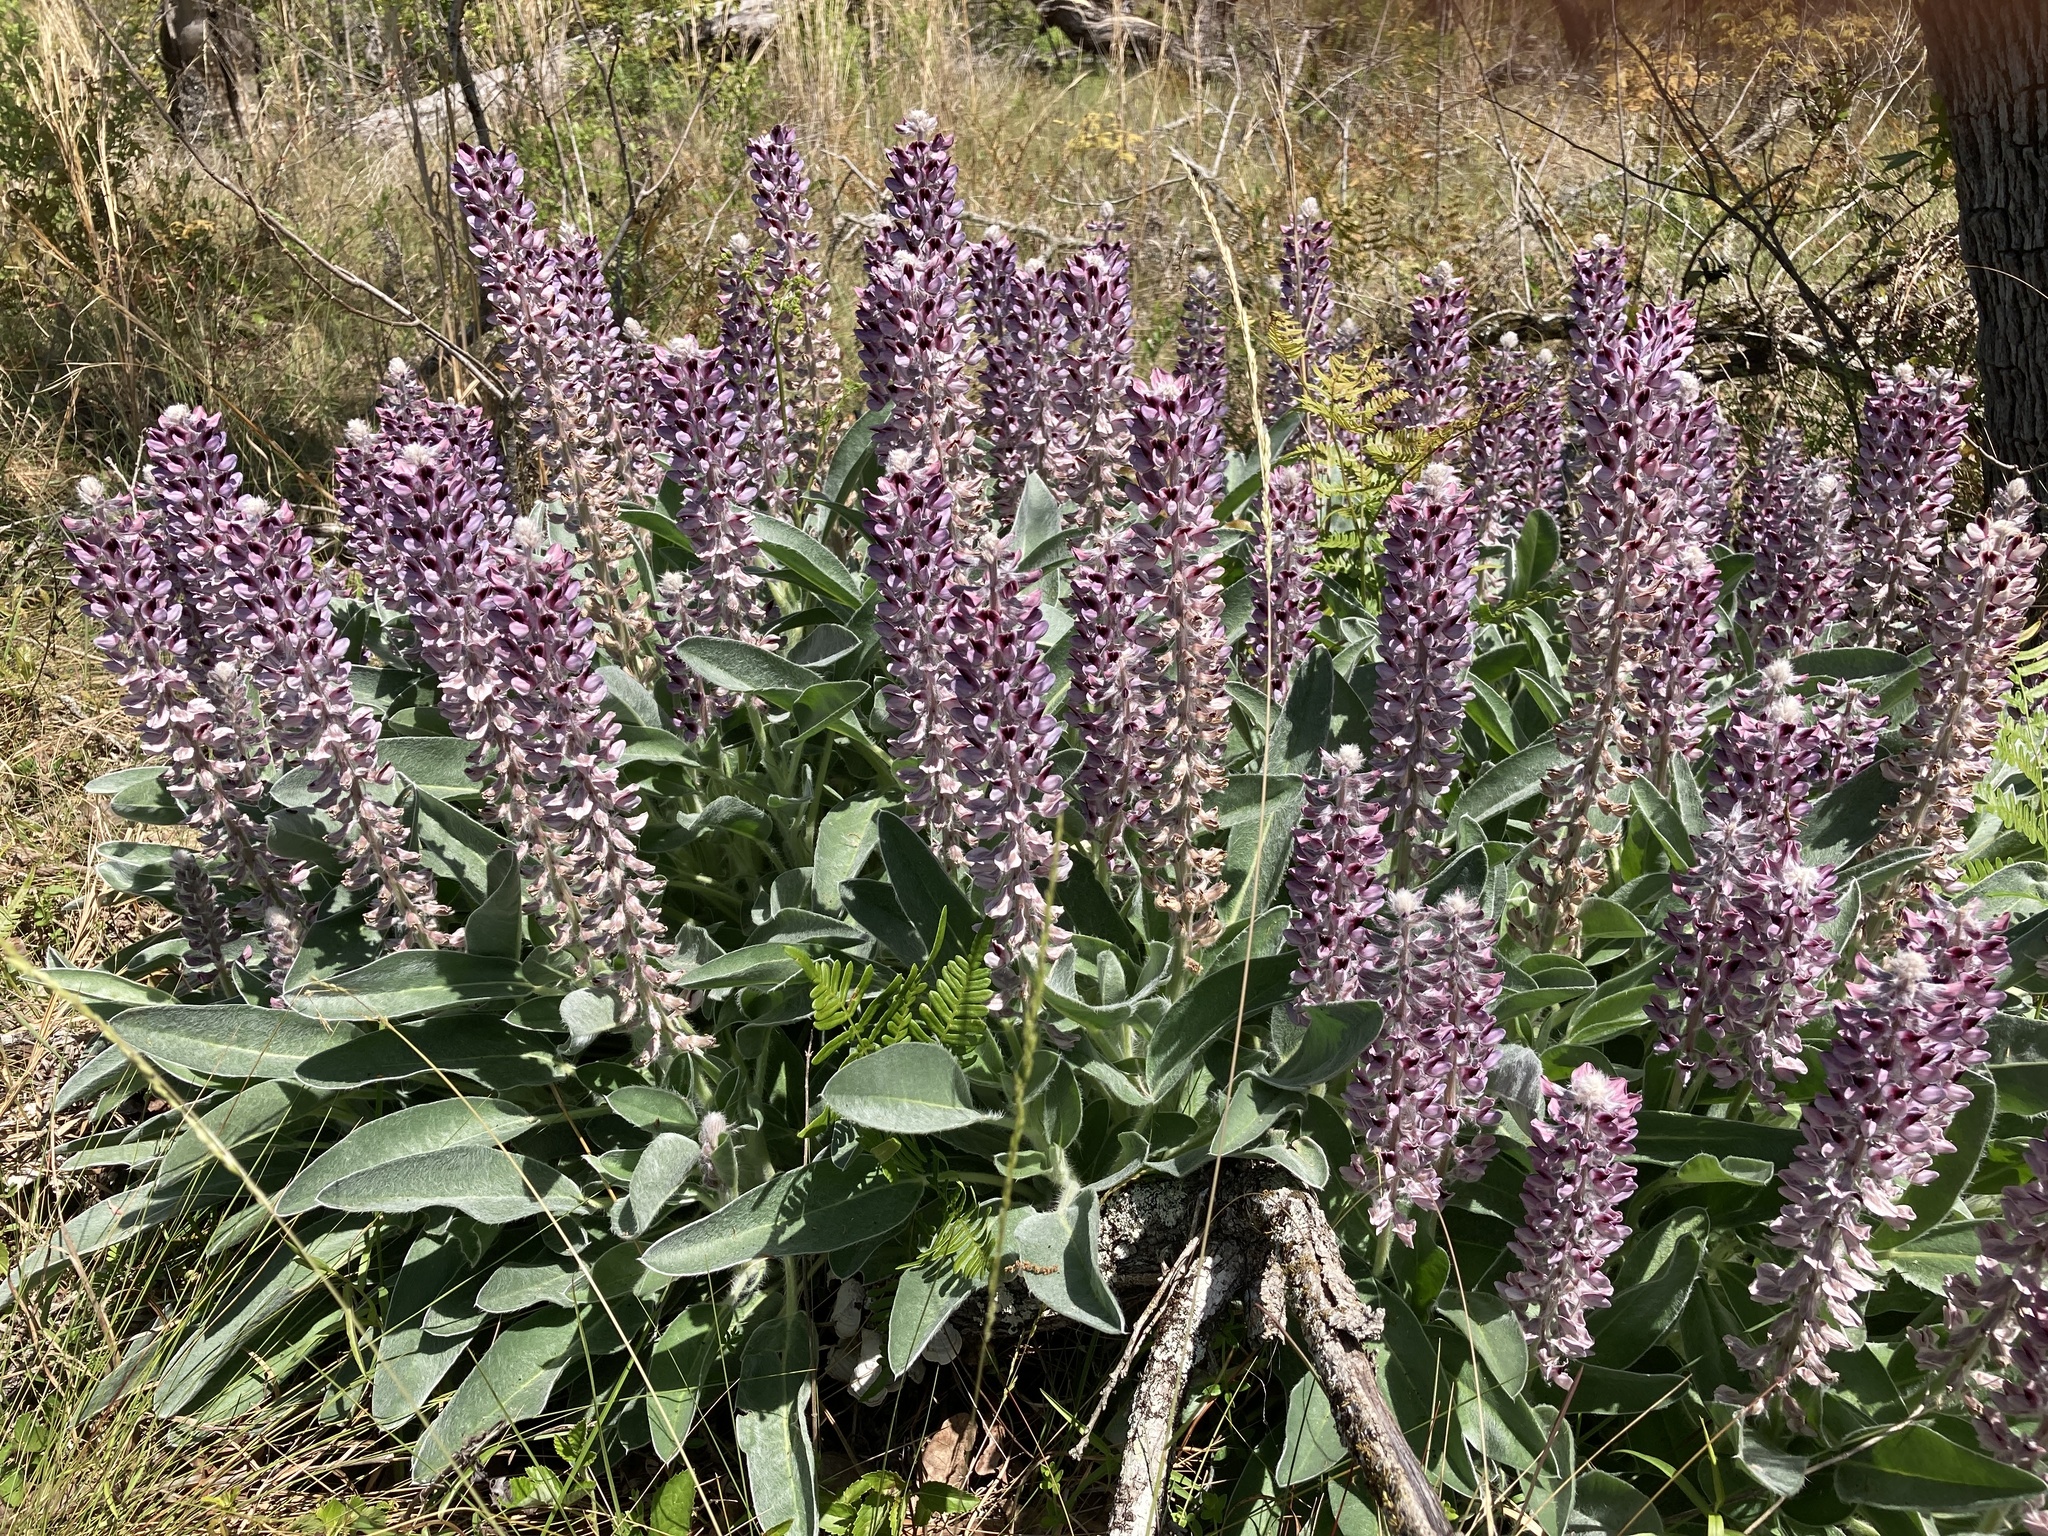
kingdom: Plantae
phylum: Tracheophyta
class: Magnoliopsida
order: Fabales
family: Fabaceae
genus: Lupinus
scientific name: Lupinus villosus
